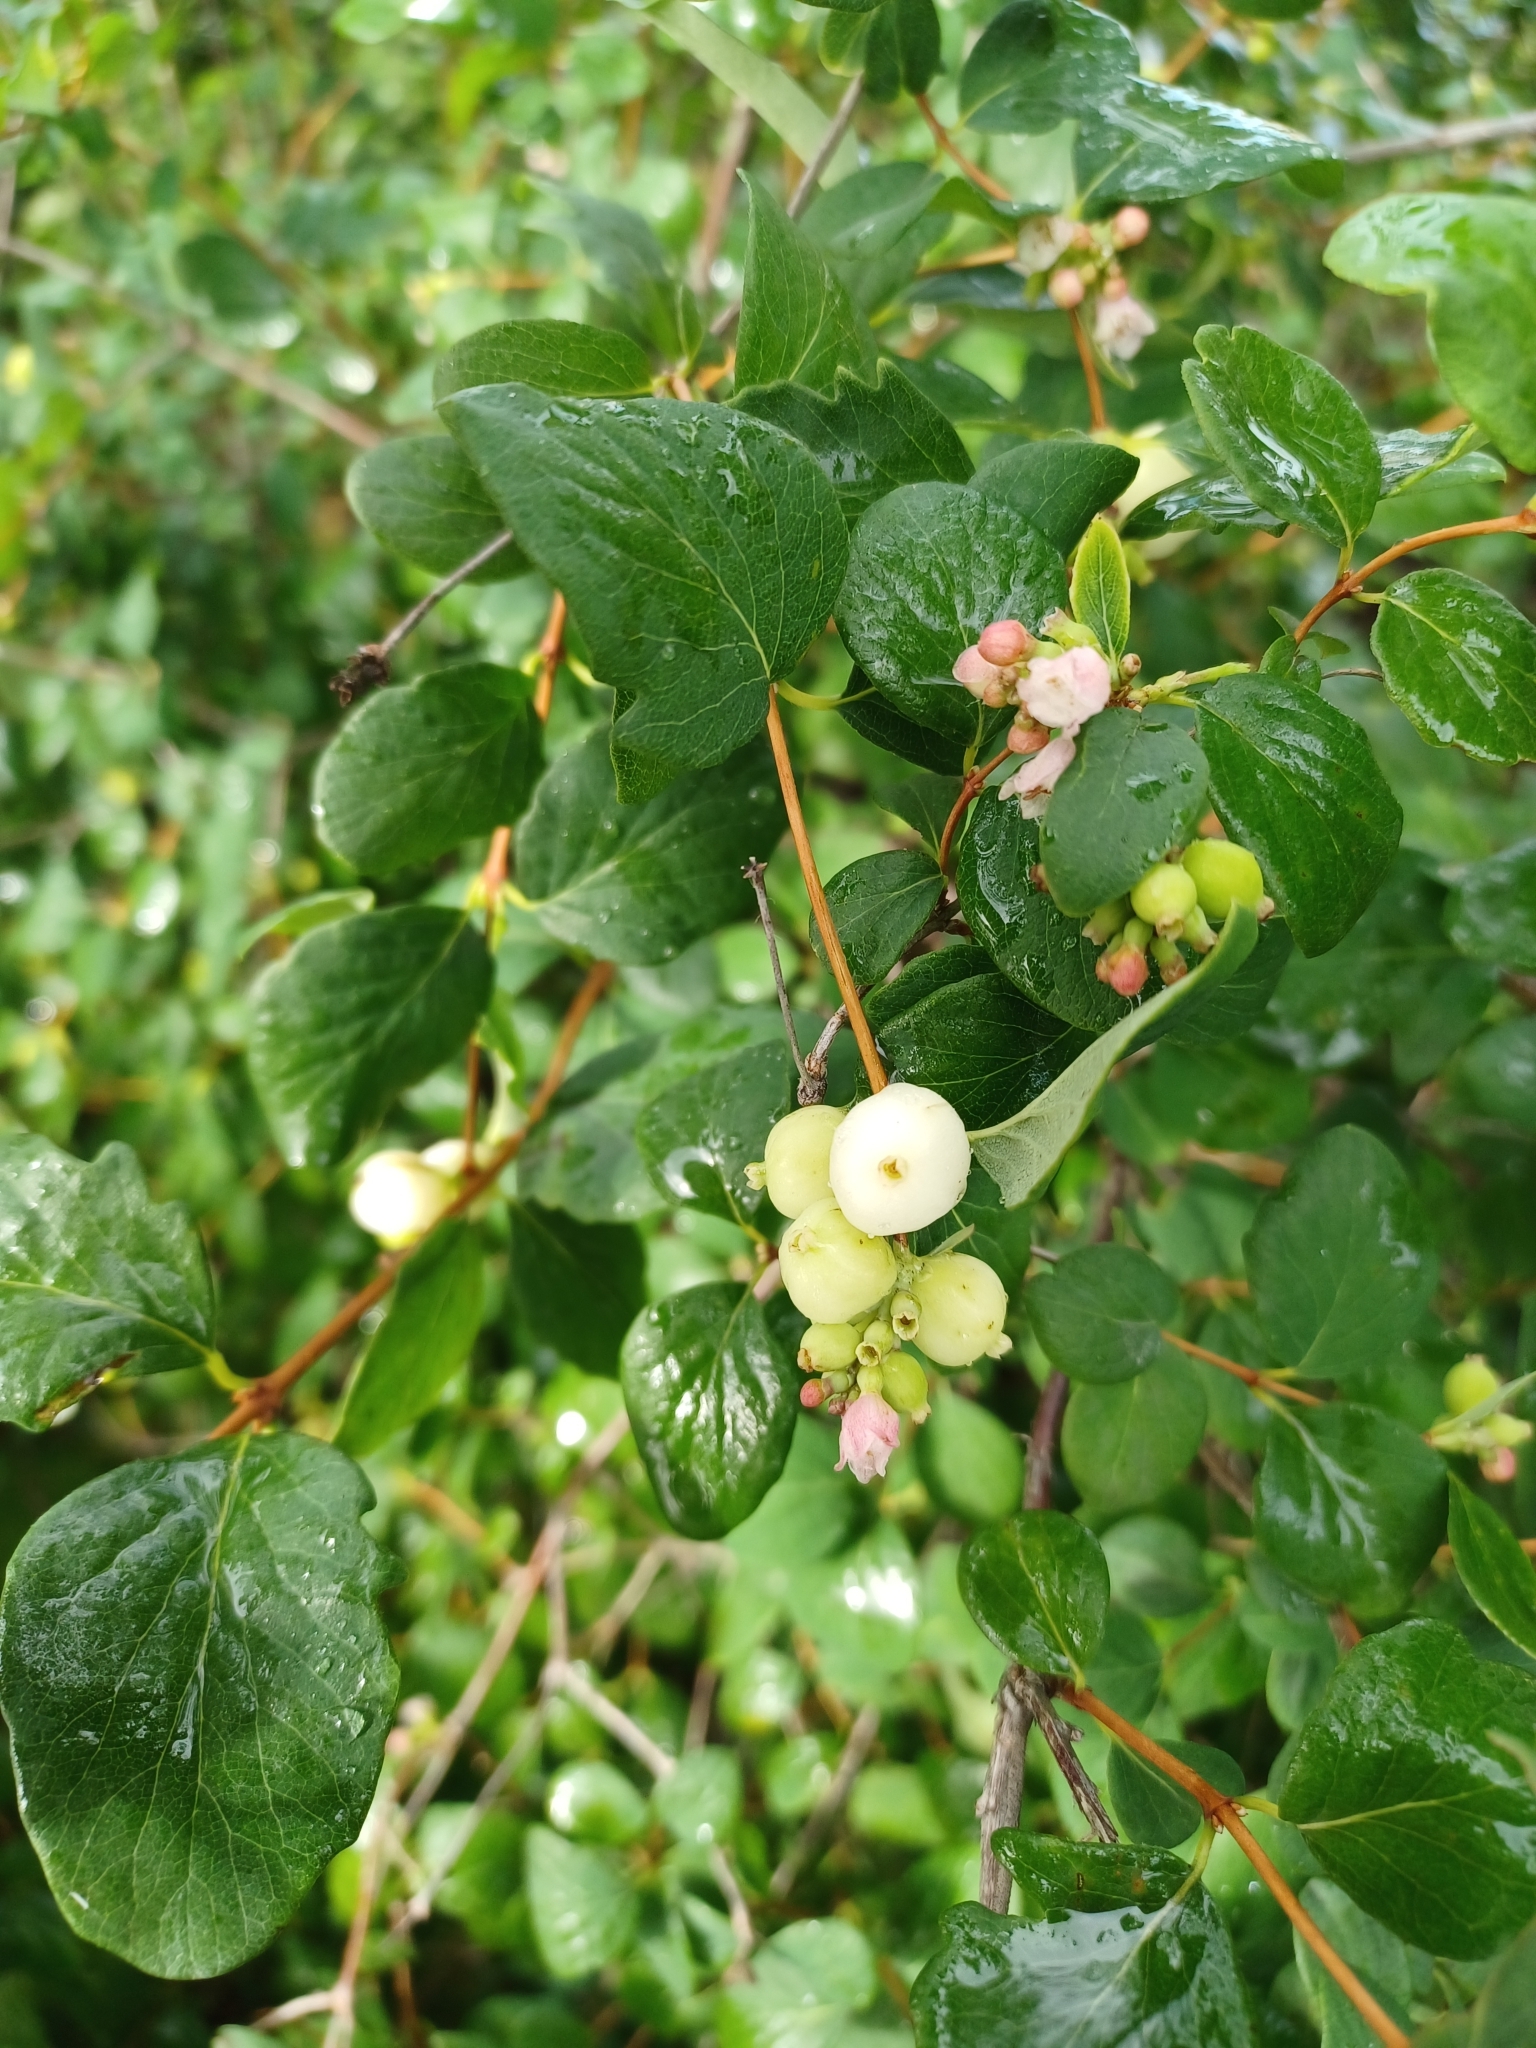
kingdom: Plantae
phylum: Tracheophyta
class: Magnoliopsida
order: Dipsacales
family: Caprifoliaceae
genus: Symphoricarpos
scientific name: Symphoricarpos albus
